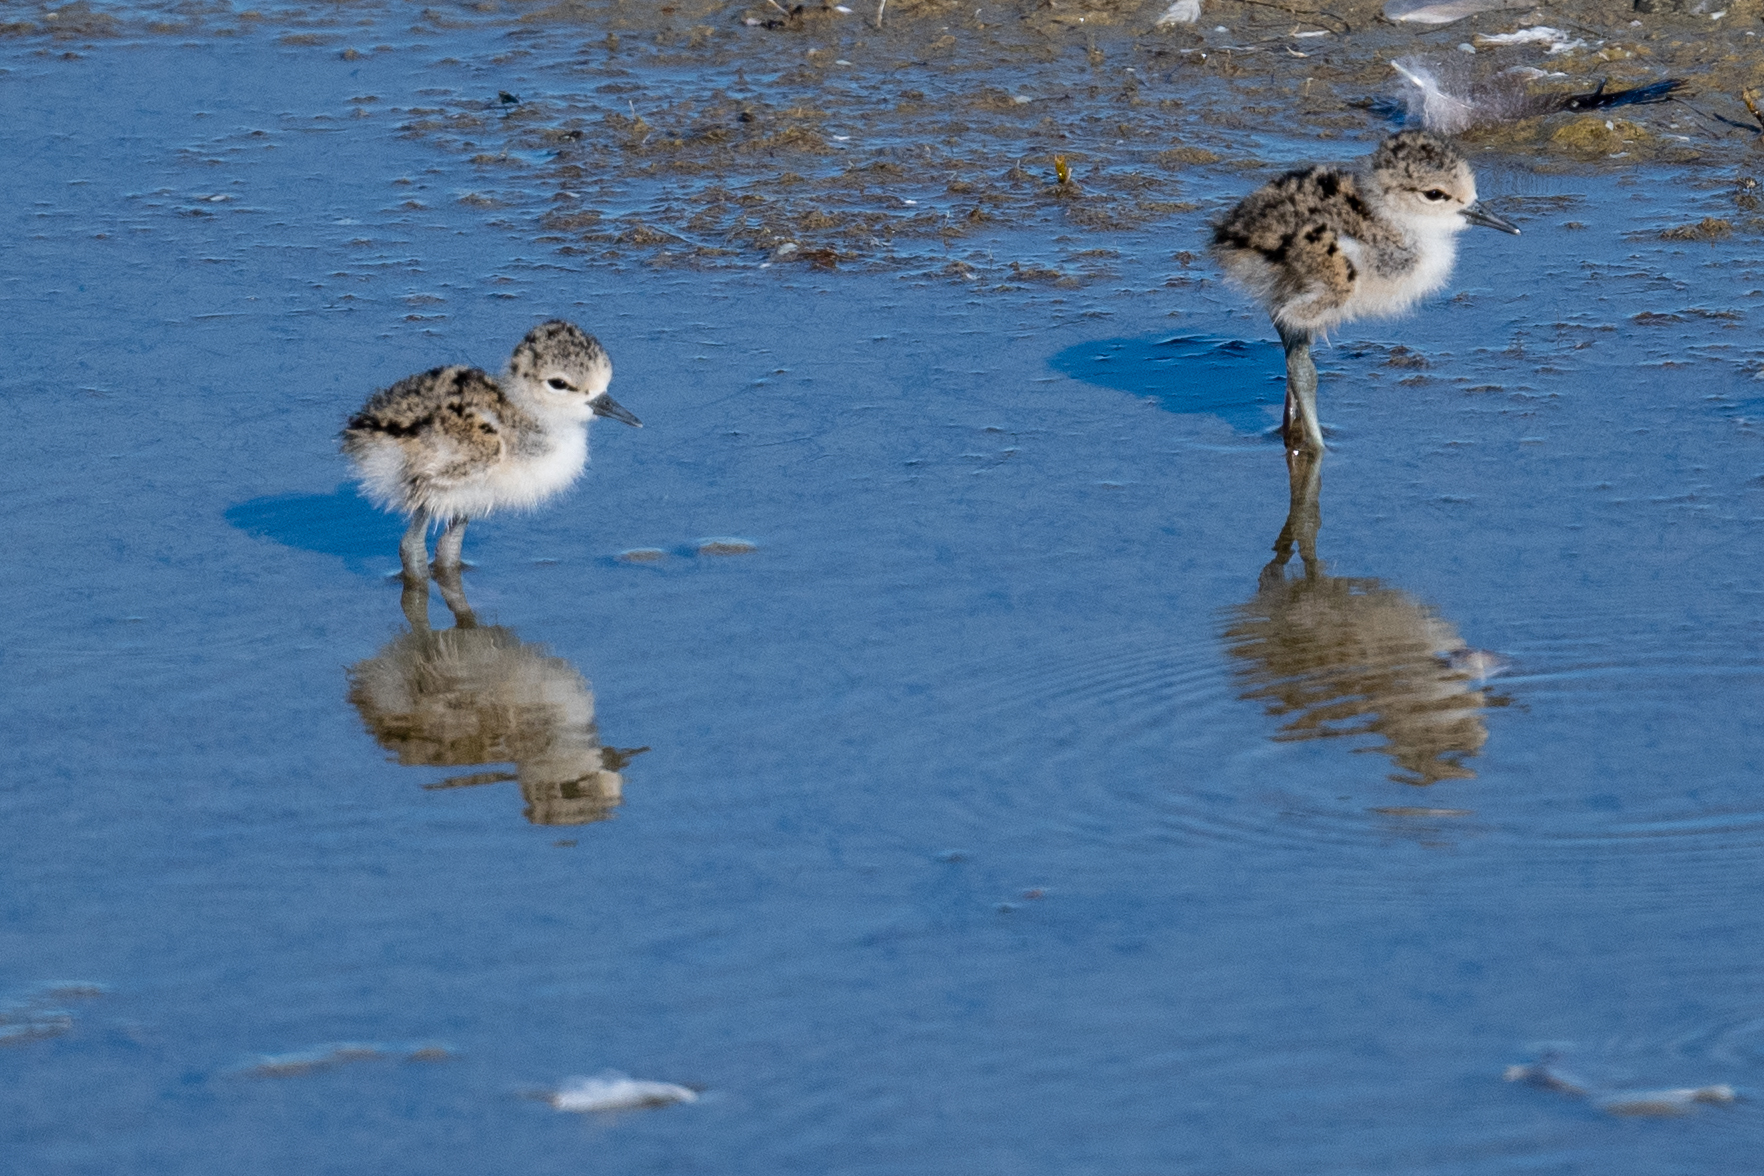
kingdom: Animalia
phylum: Chordata
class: Aves
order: Charadriiformes
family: Recurvirostridae
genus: Himantopus
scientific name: Himantopus mexicanus
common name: Black-necked stilt
